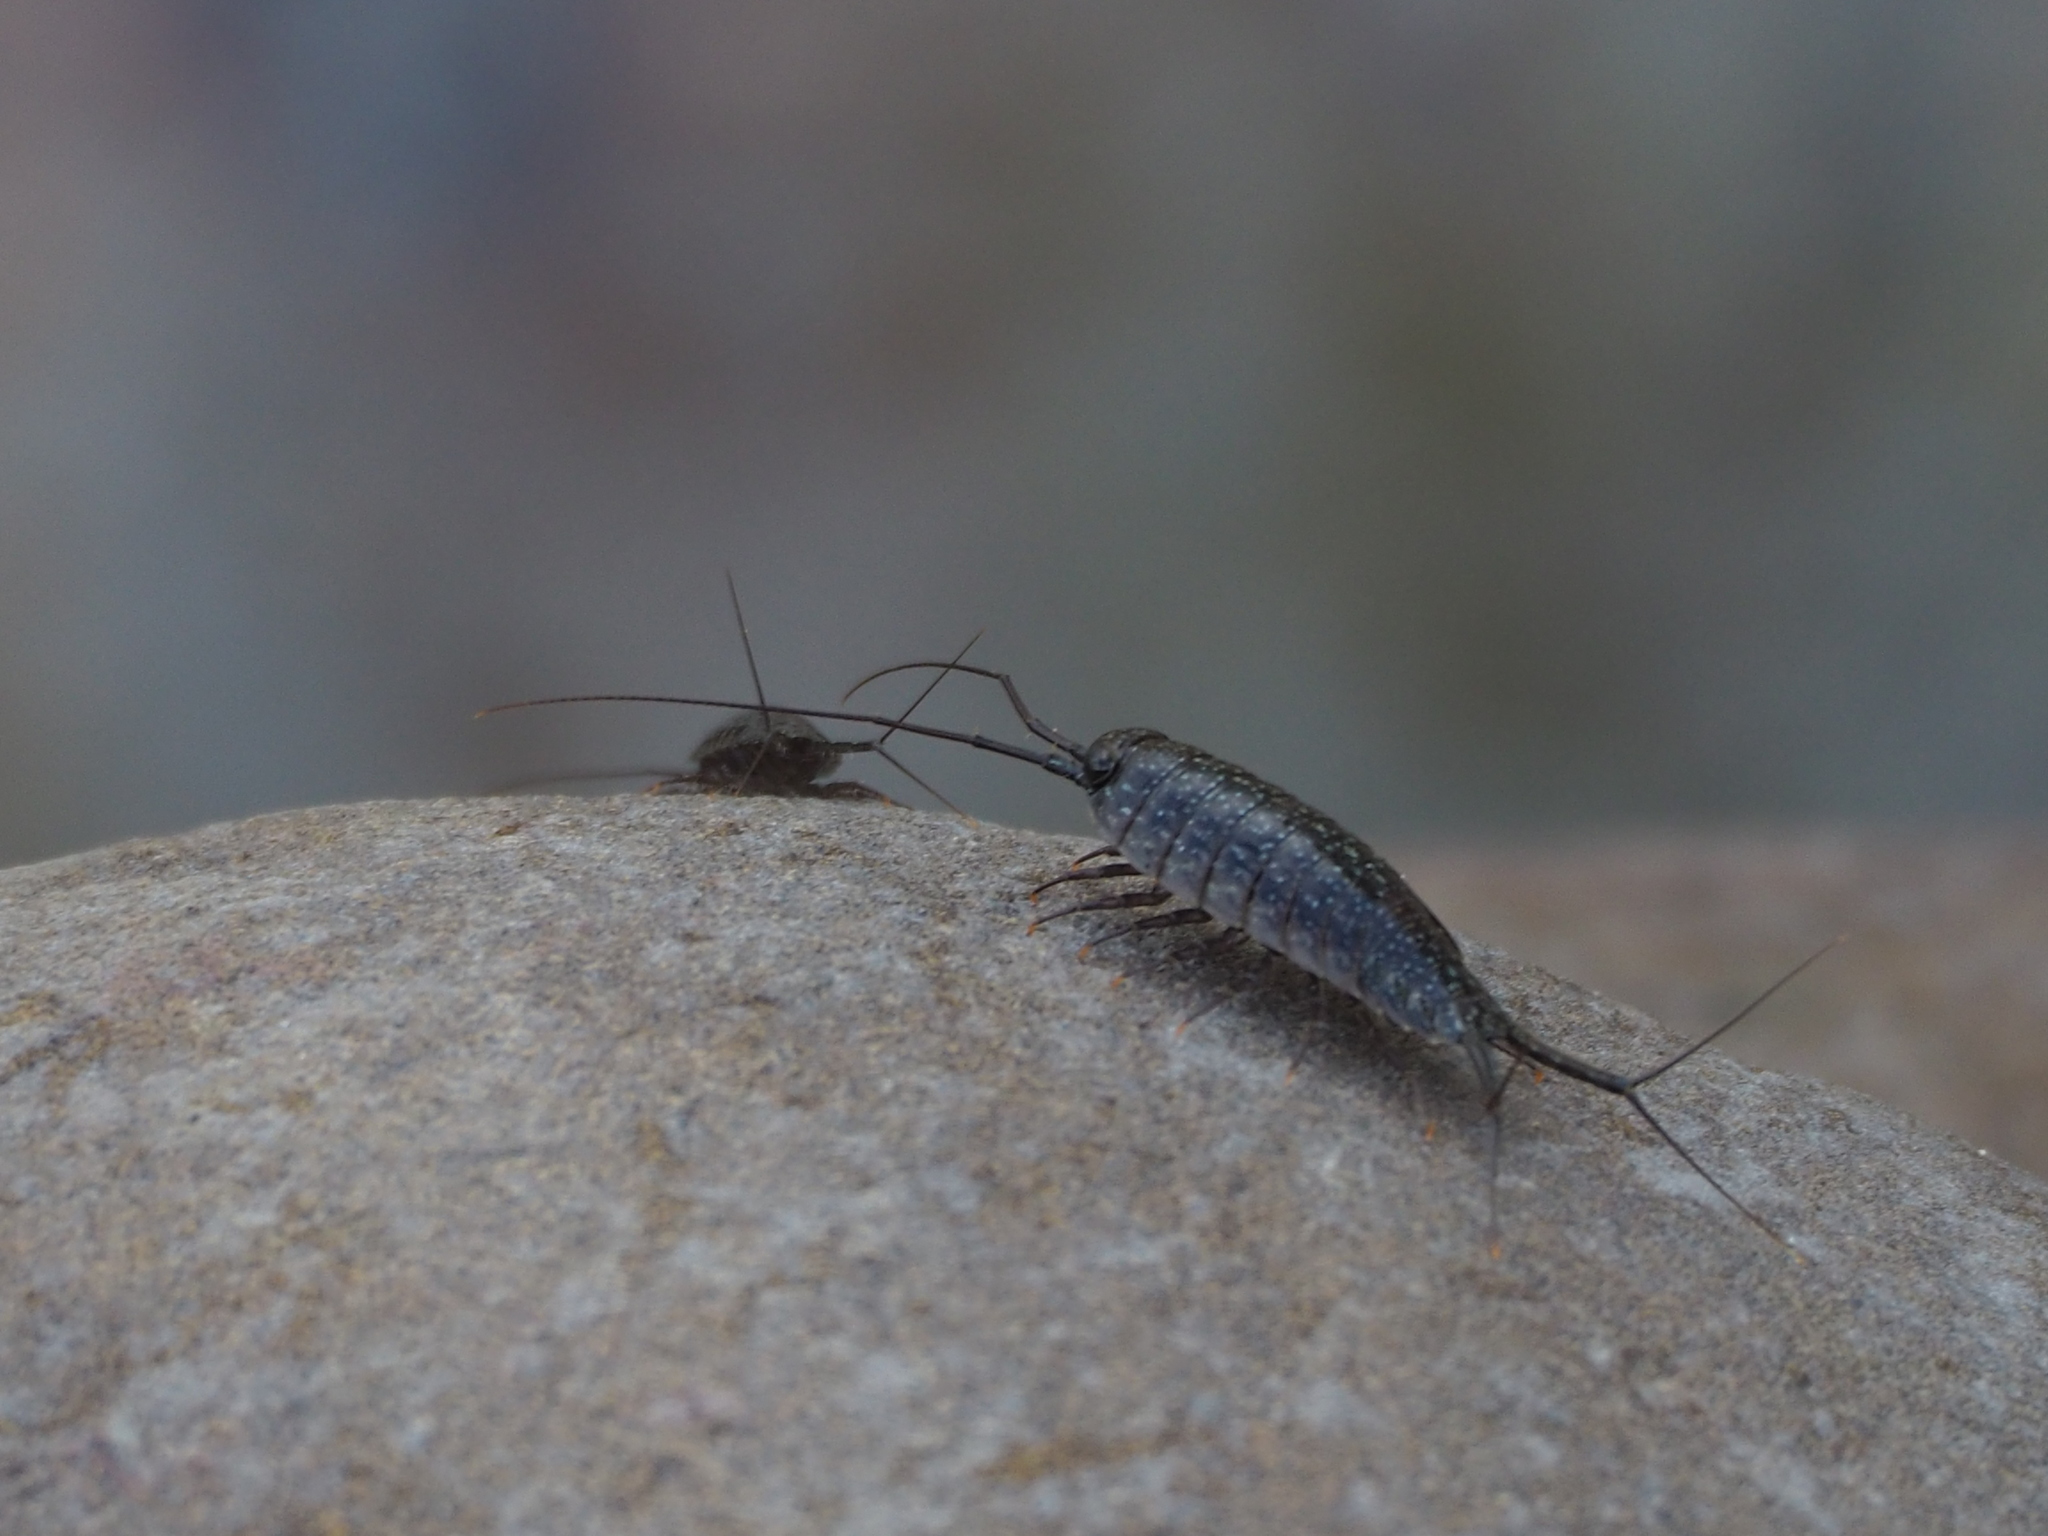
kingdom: Animalia
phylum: Arthropoda
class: Malacostraca
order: Isopoda
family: Ligiidae
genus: Ligia
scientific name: Ligia exotica
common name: Wharf roach
